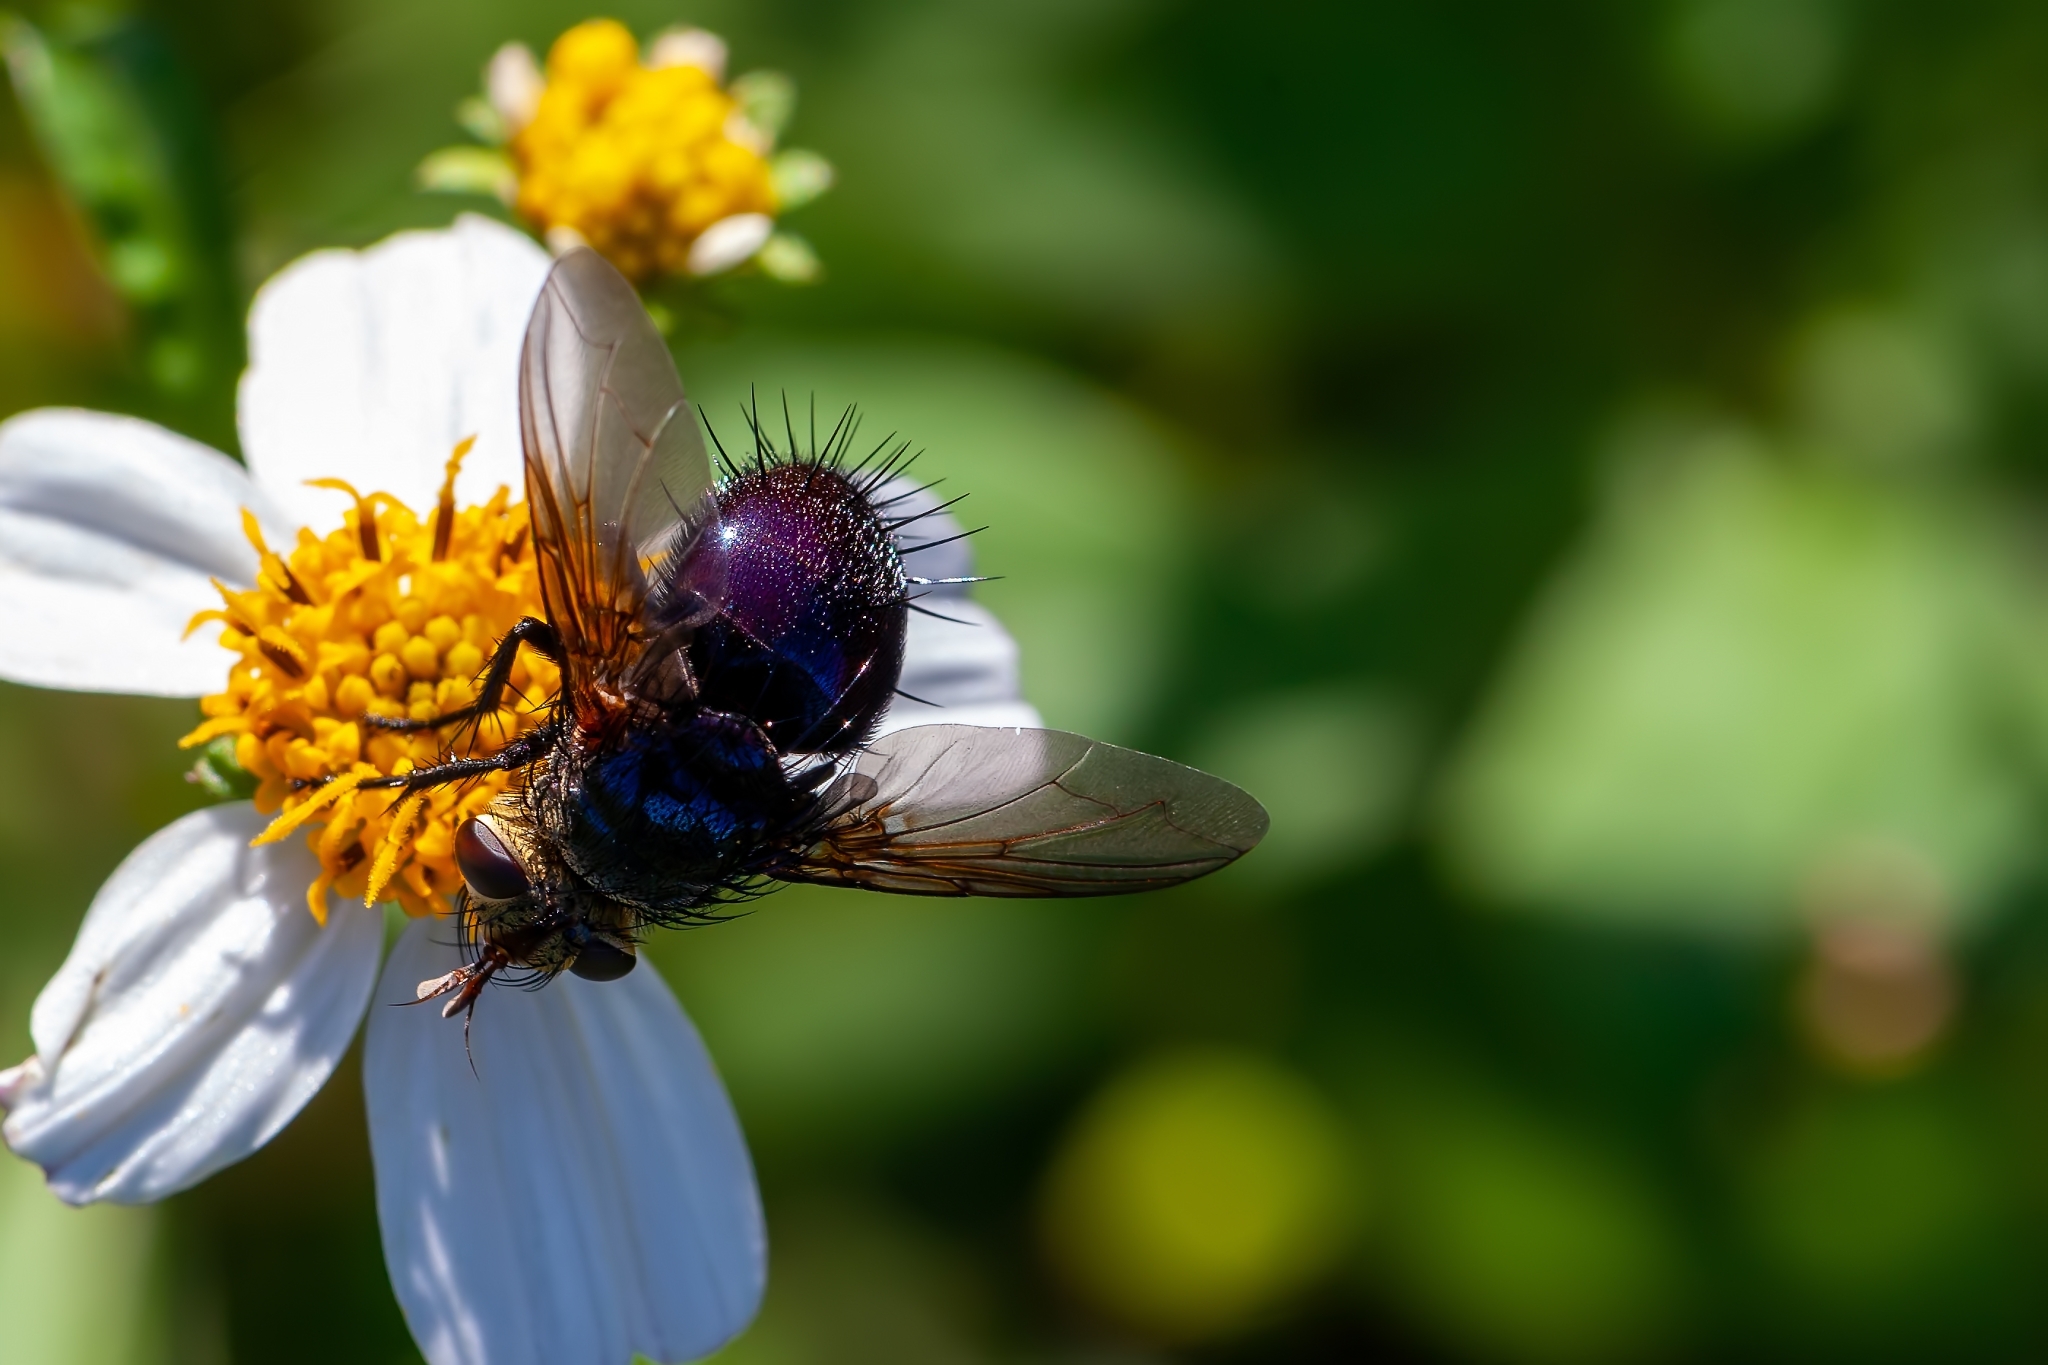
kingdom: Animalia
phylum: Arthropoda
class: Insecta
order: Diptera
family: Tachinidae
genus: Archytas
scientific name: Archytas metallicus
